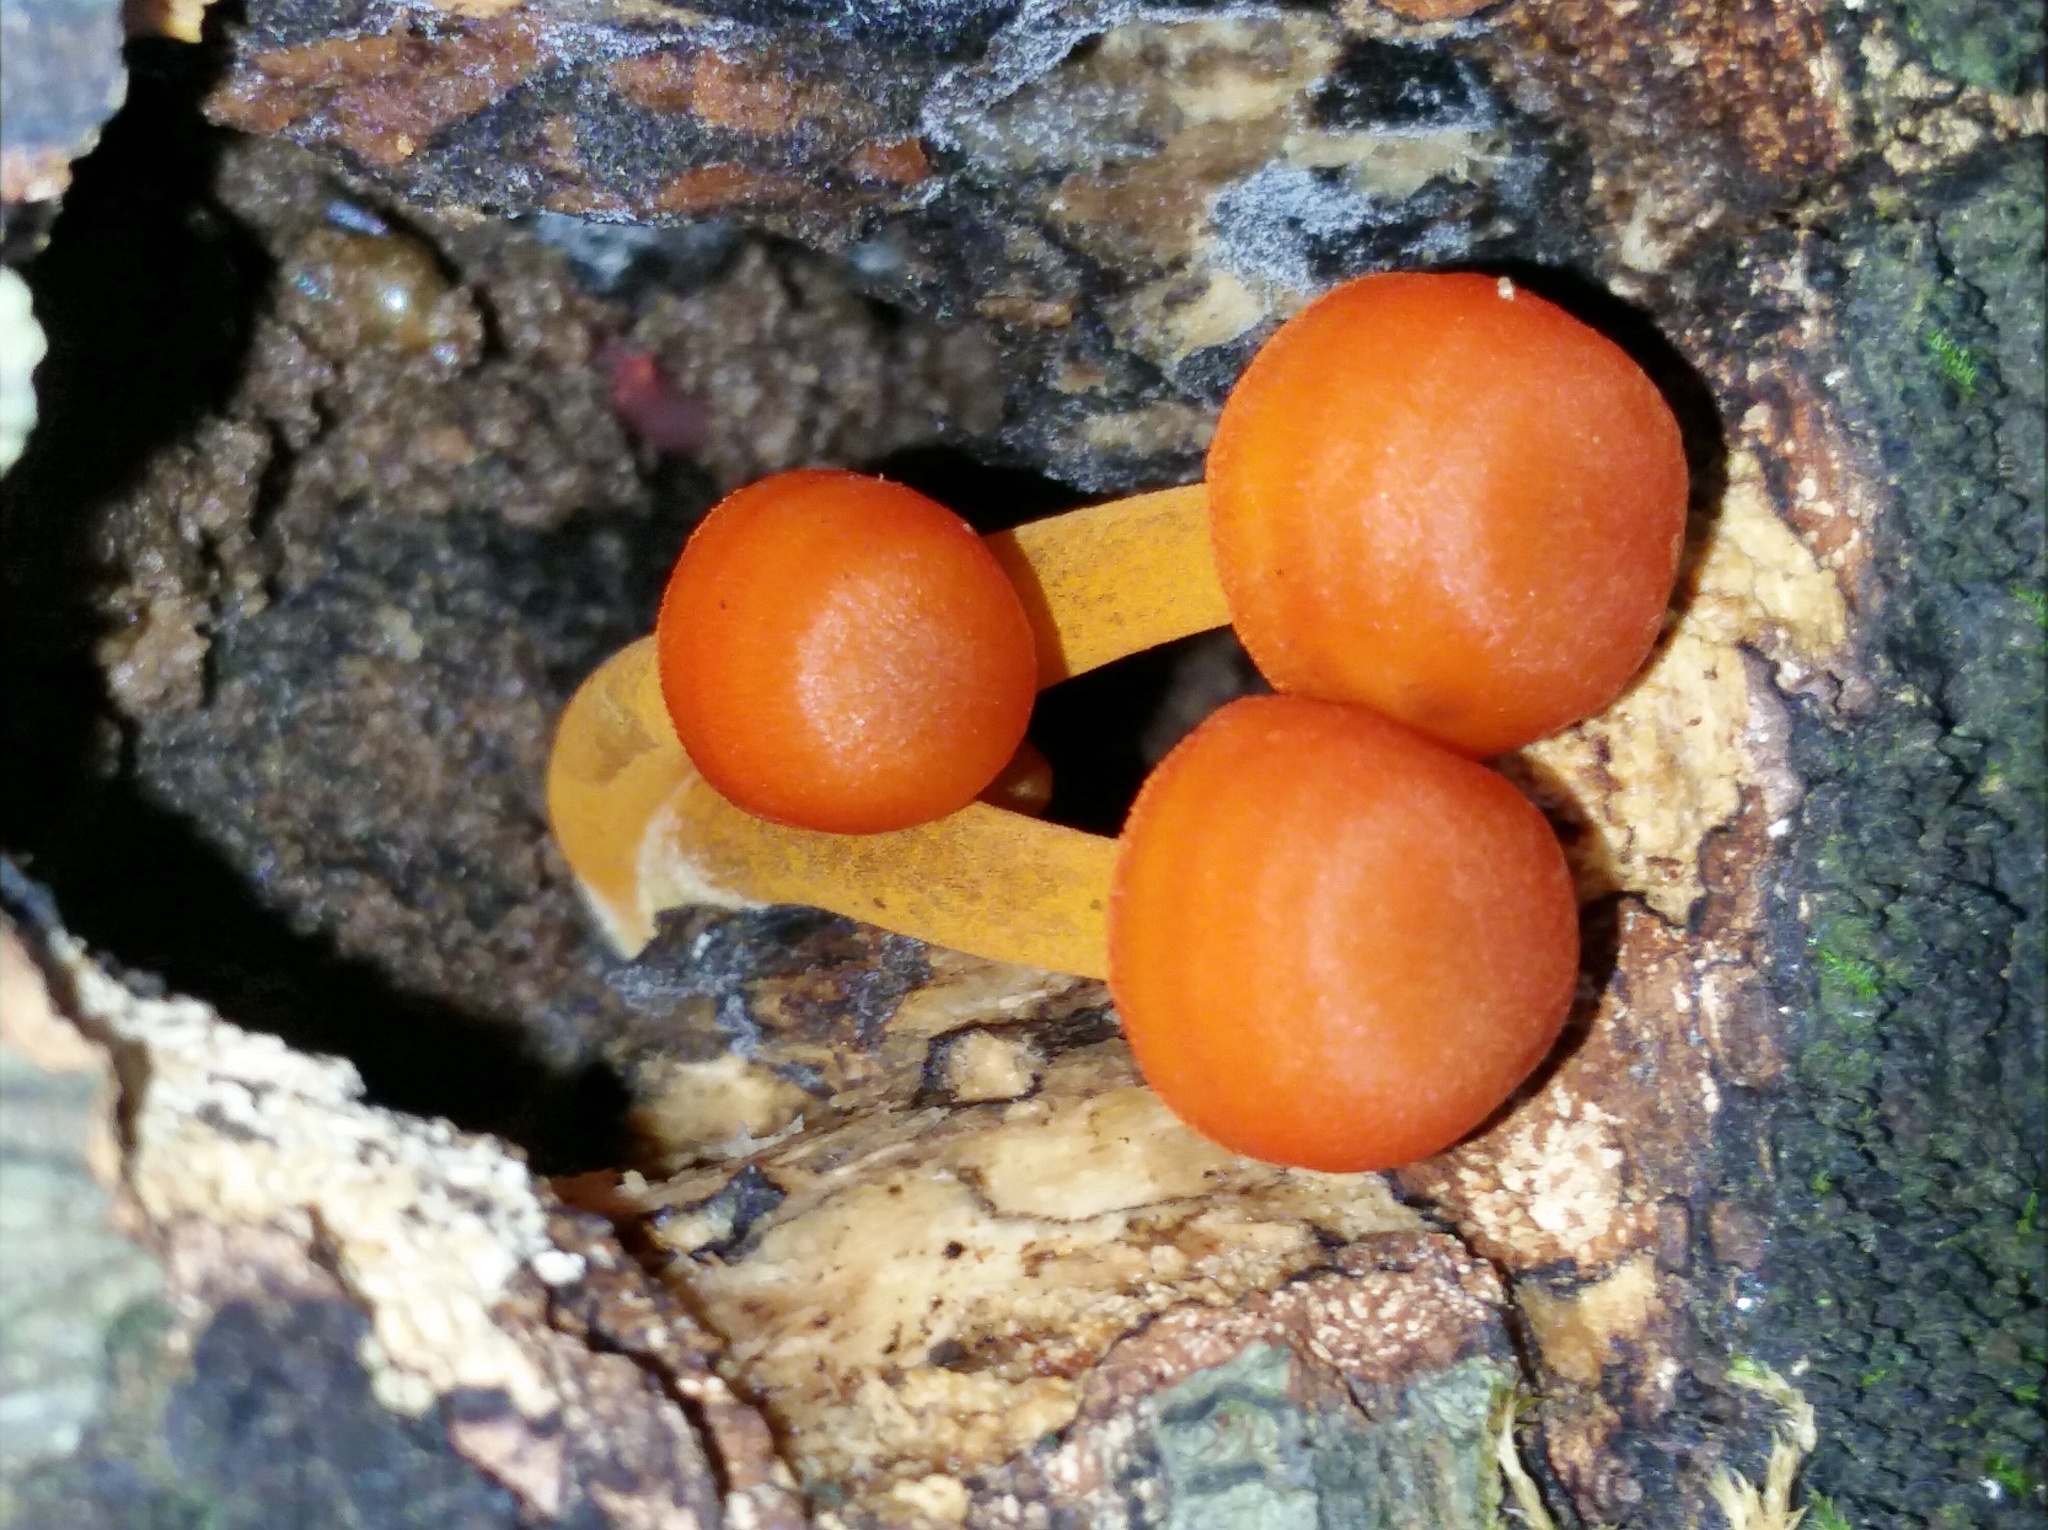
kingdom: Fungi
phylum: Basidiomycota
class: Agaricomycetes
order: Agaricales
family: Mycenaceae
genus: Mycena
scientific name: Mycena leaiana
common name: Orange mycena
